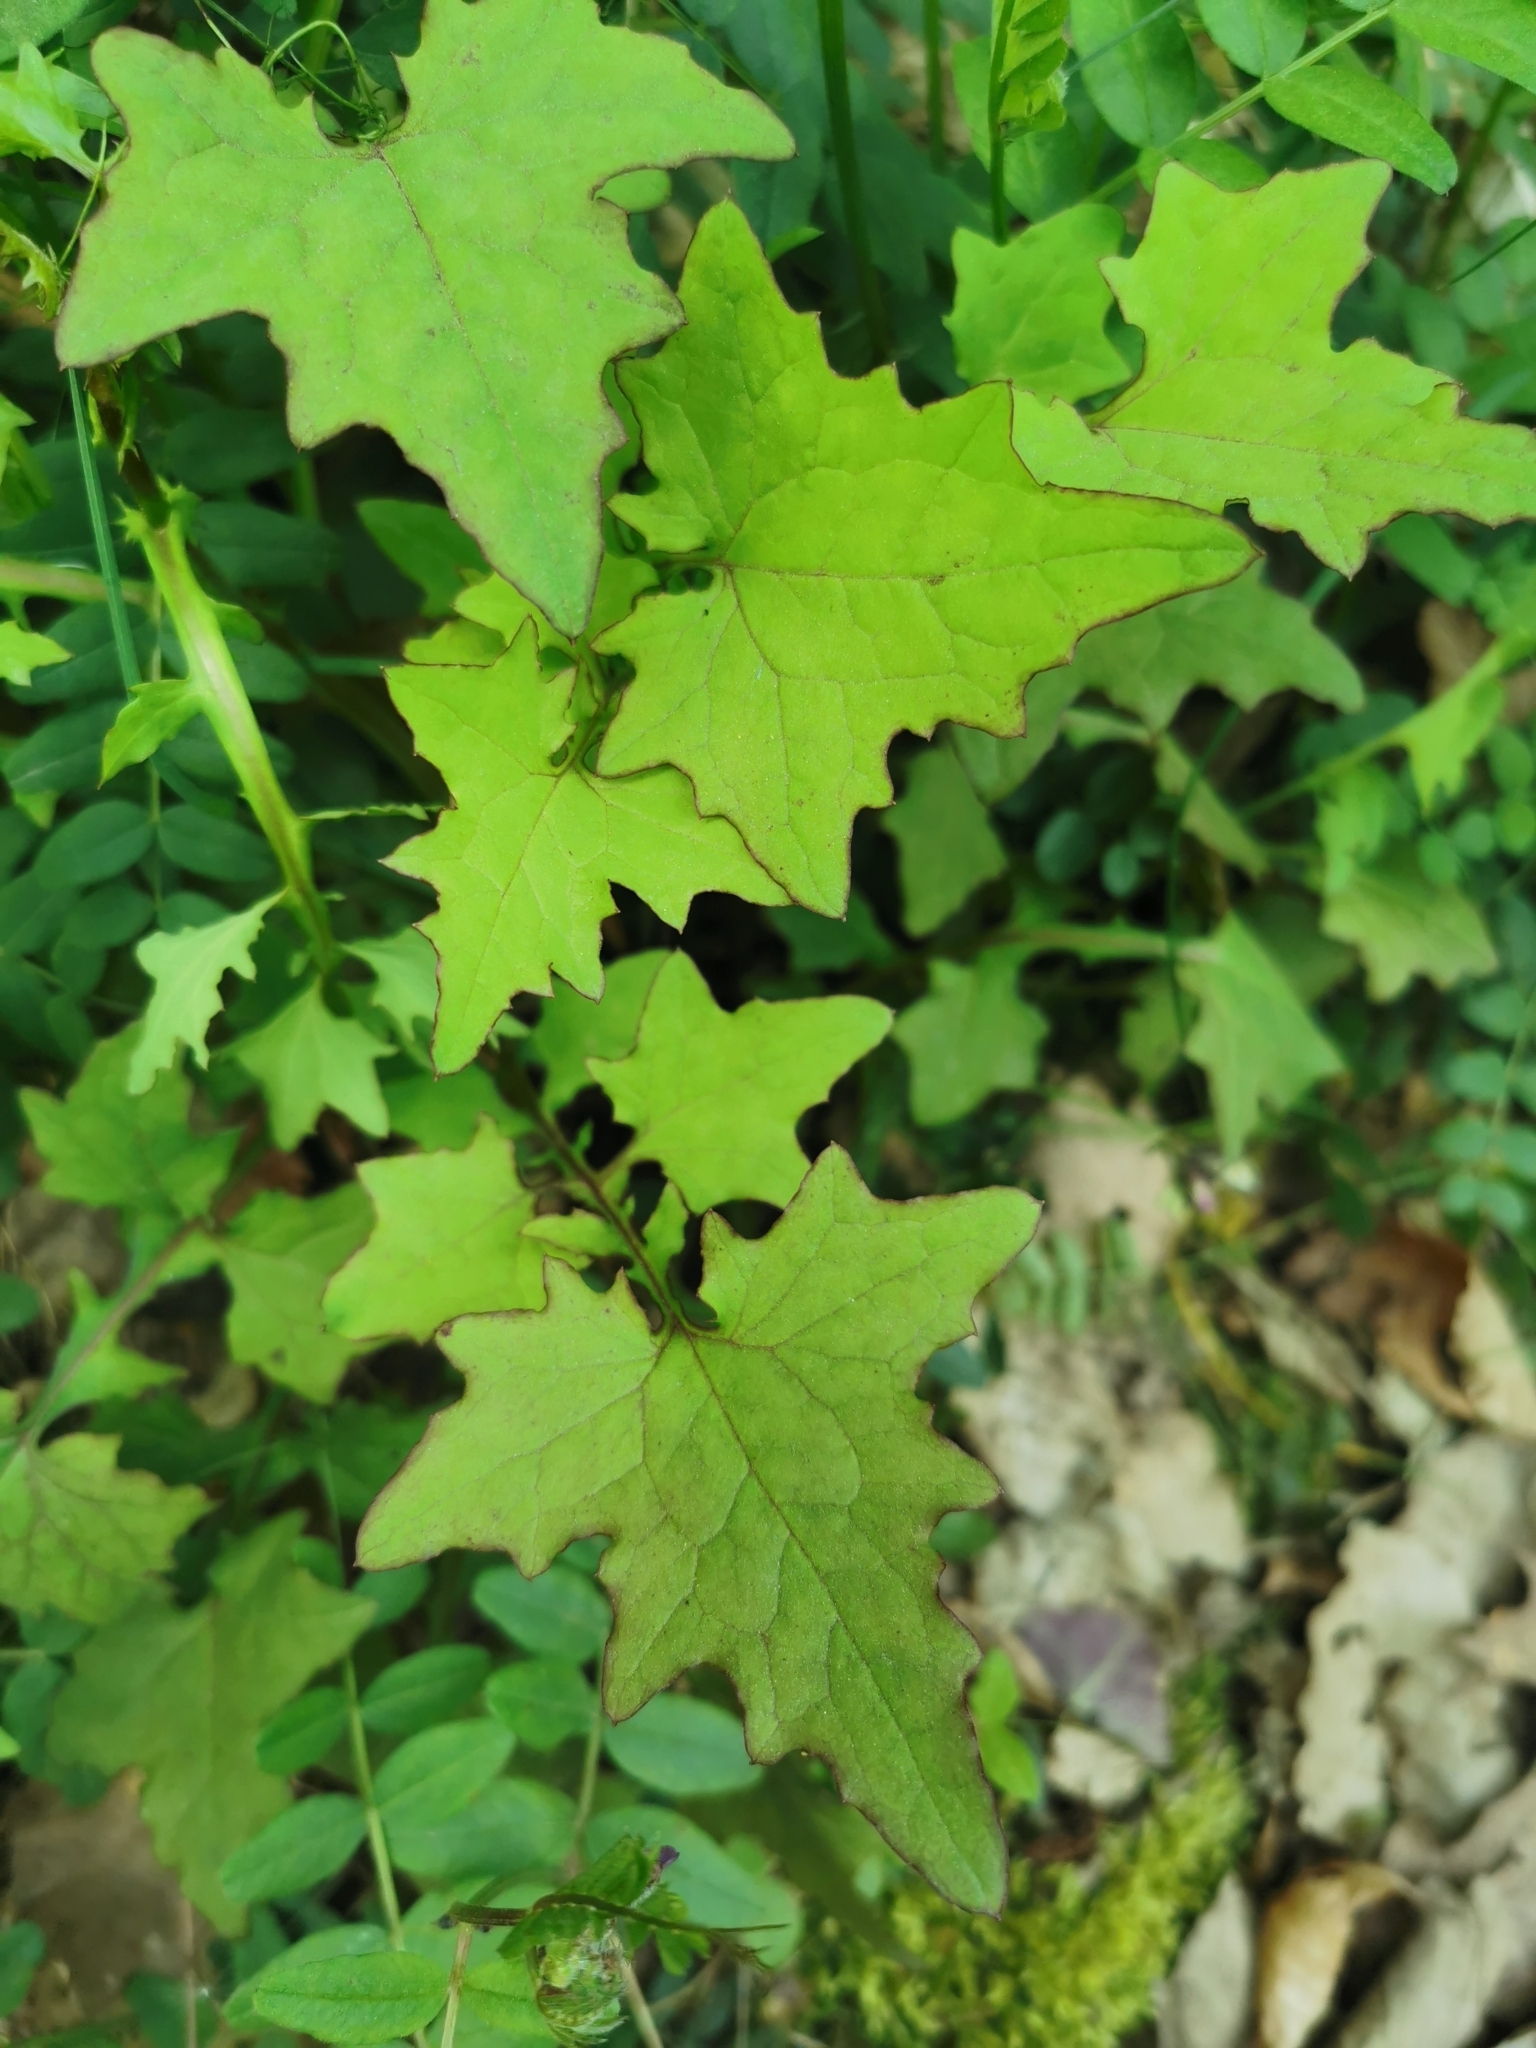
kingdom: Plantae
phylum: Tracheophyta
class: Magnoliopsida
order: Asterales
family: Asteraceae
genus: Mycelis
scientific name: Mycelis muralis
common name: Wall lettuce
